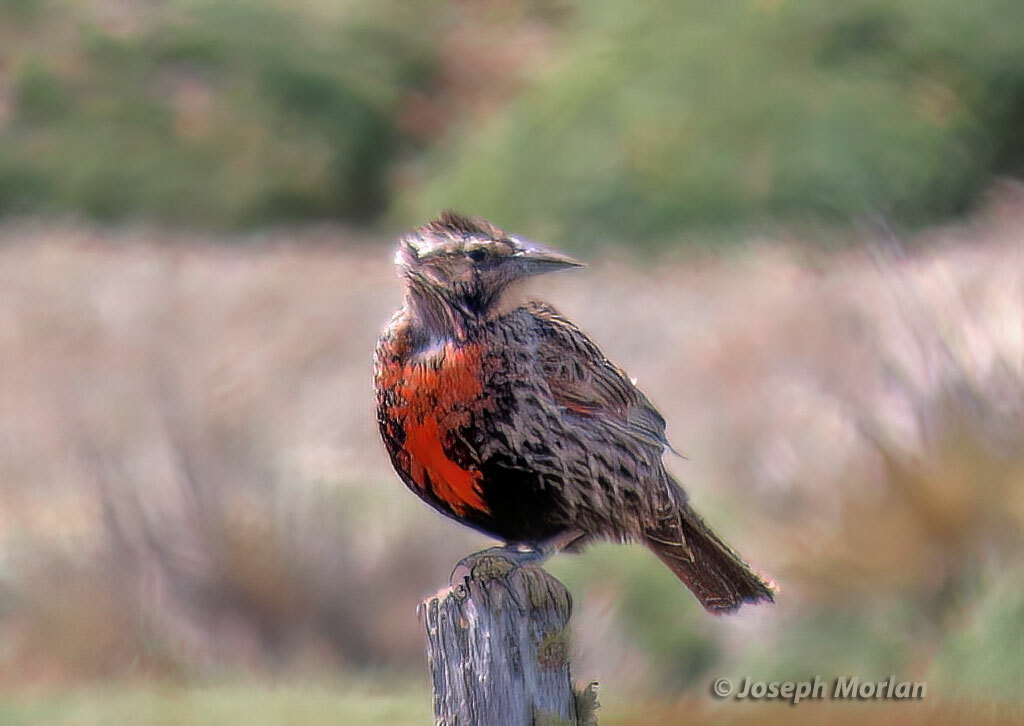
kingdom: Animalia
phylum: Chordata
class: Aves
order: Passeriformes
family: Icteridae
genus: Sturnella
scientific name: Sturnella loyca
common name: Long-tailed meadowlark
